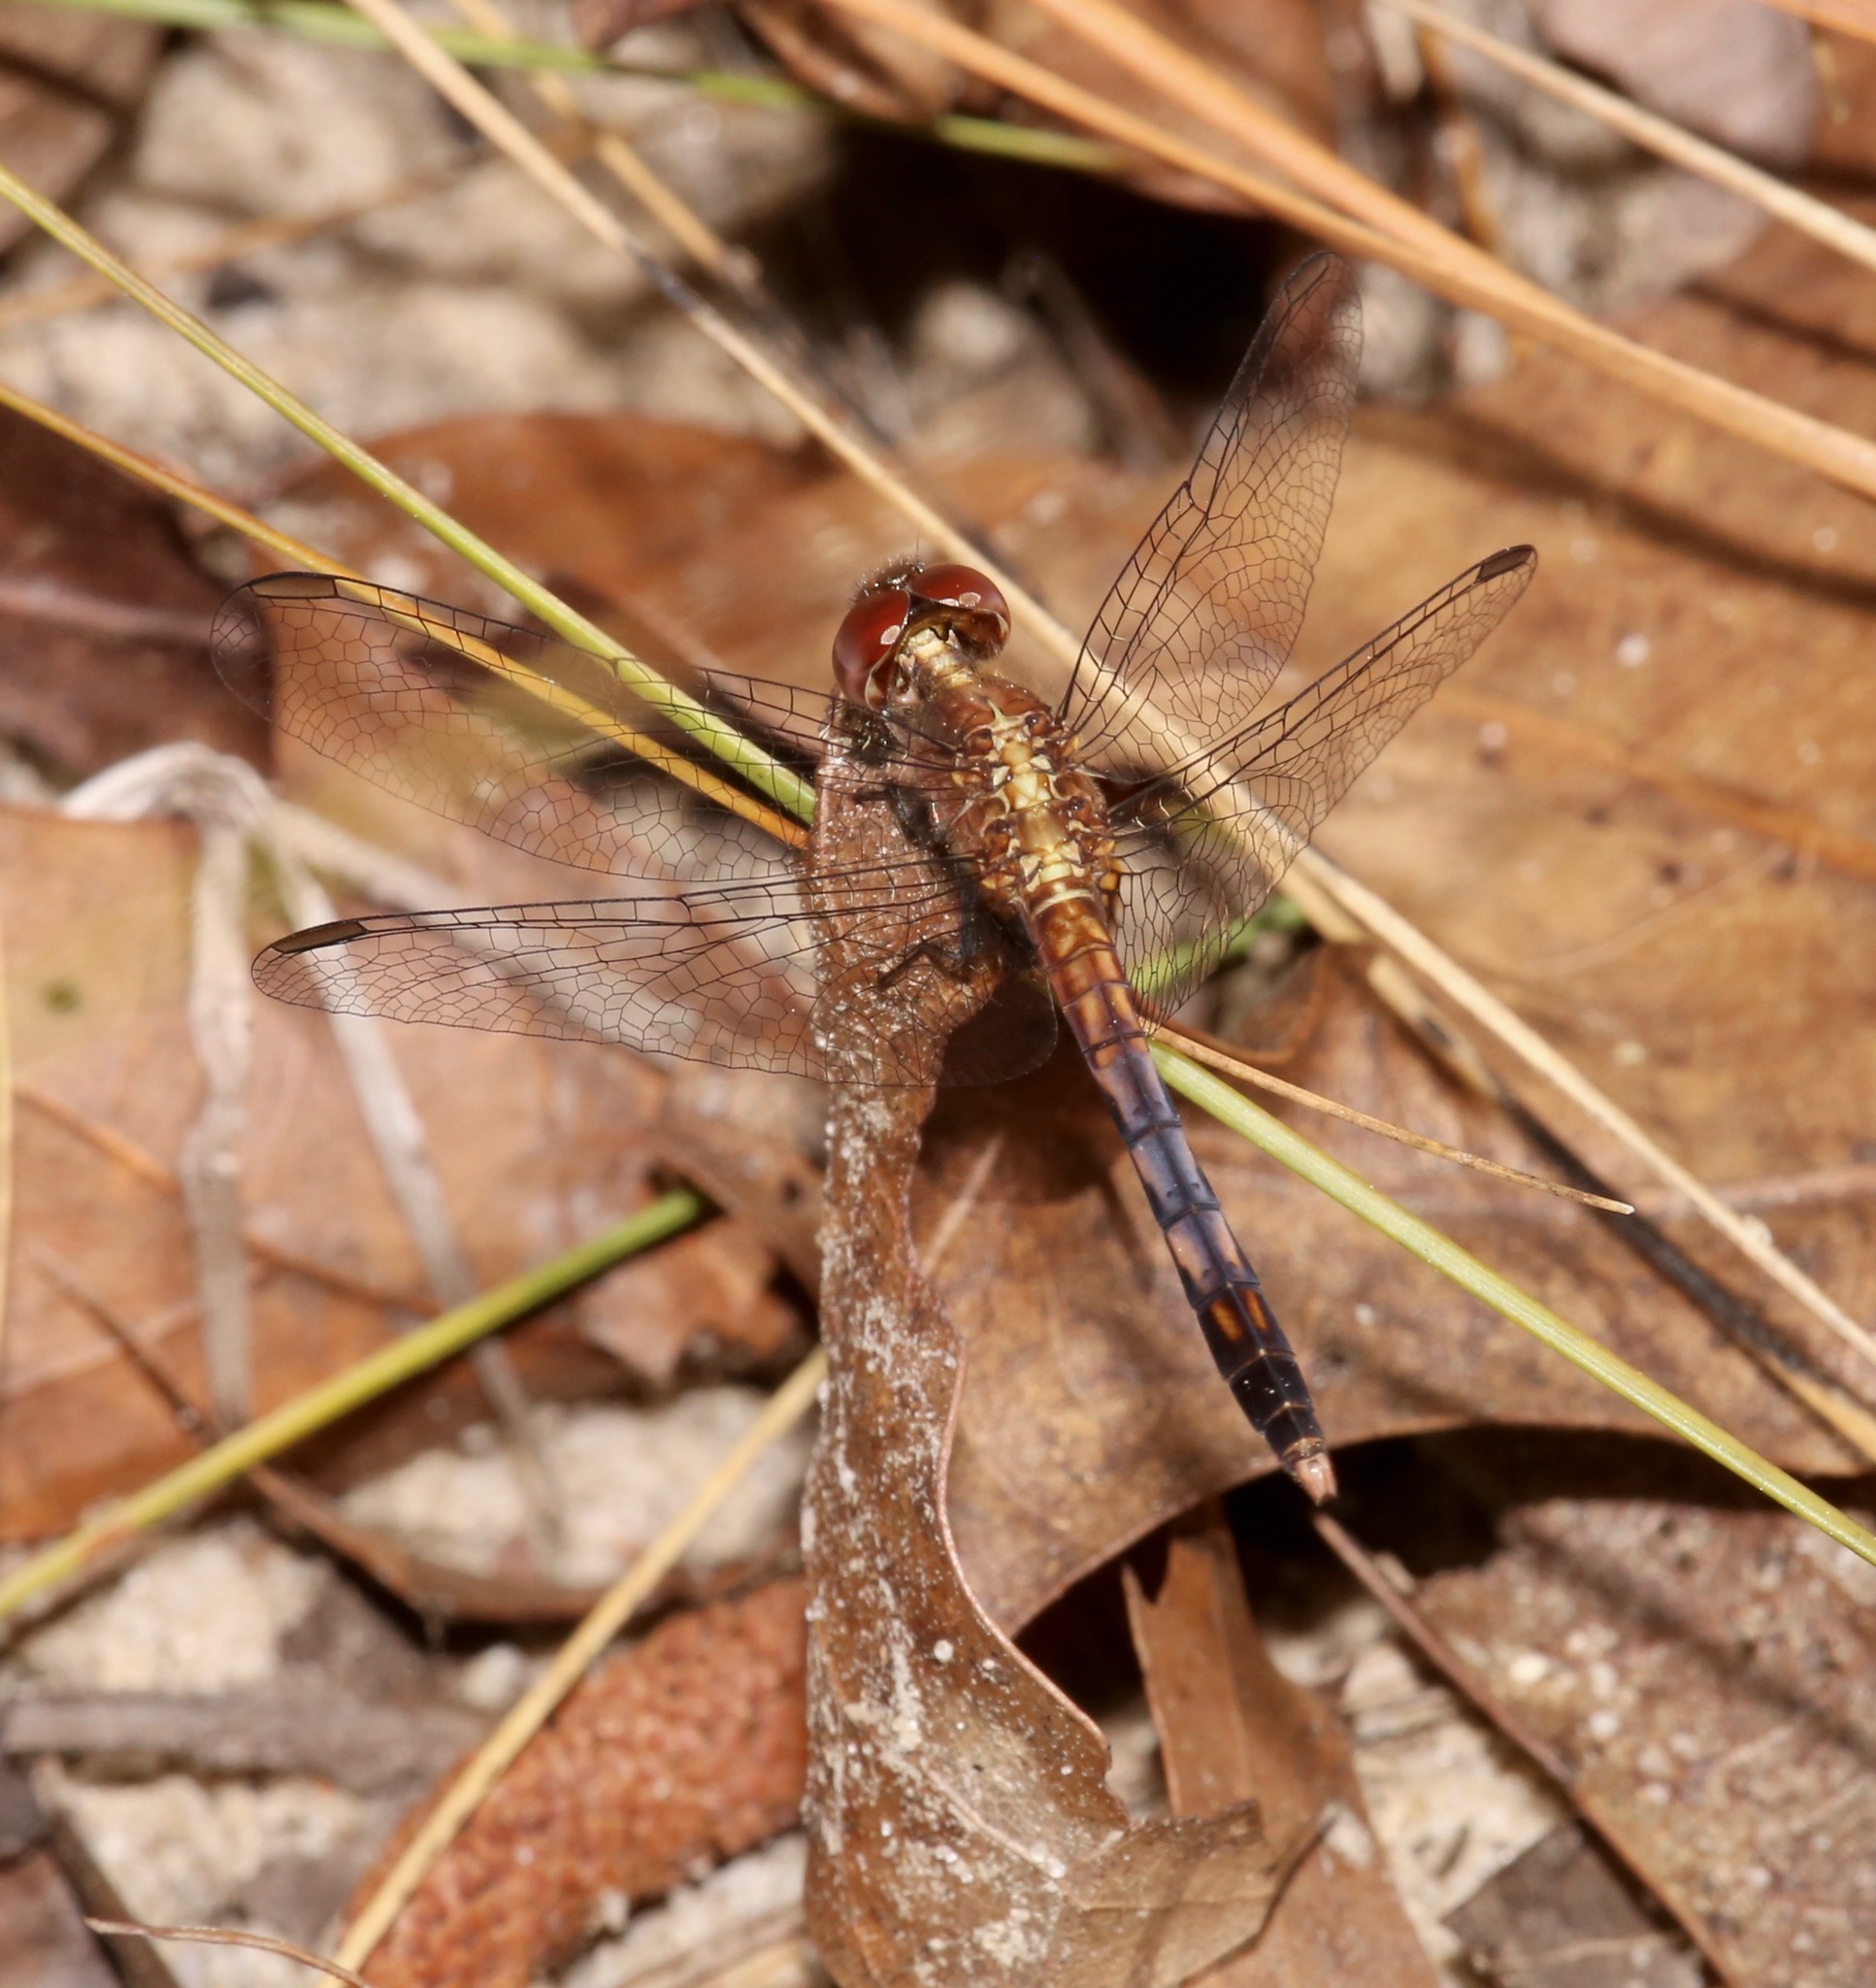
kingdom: Animalia
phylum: Arthropoda
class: Insecta
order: Odonata
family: Libellulidae
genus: Erythrodiplax
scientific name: Erythrodiplax minuscula
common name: Little blue dragonlet
